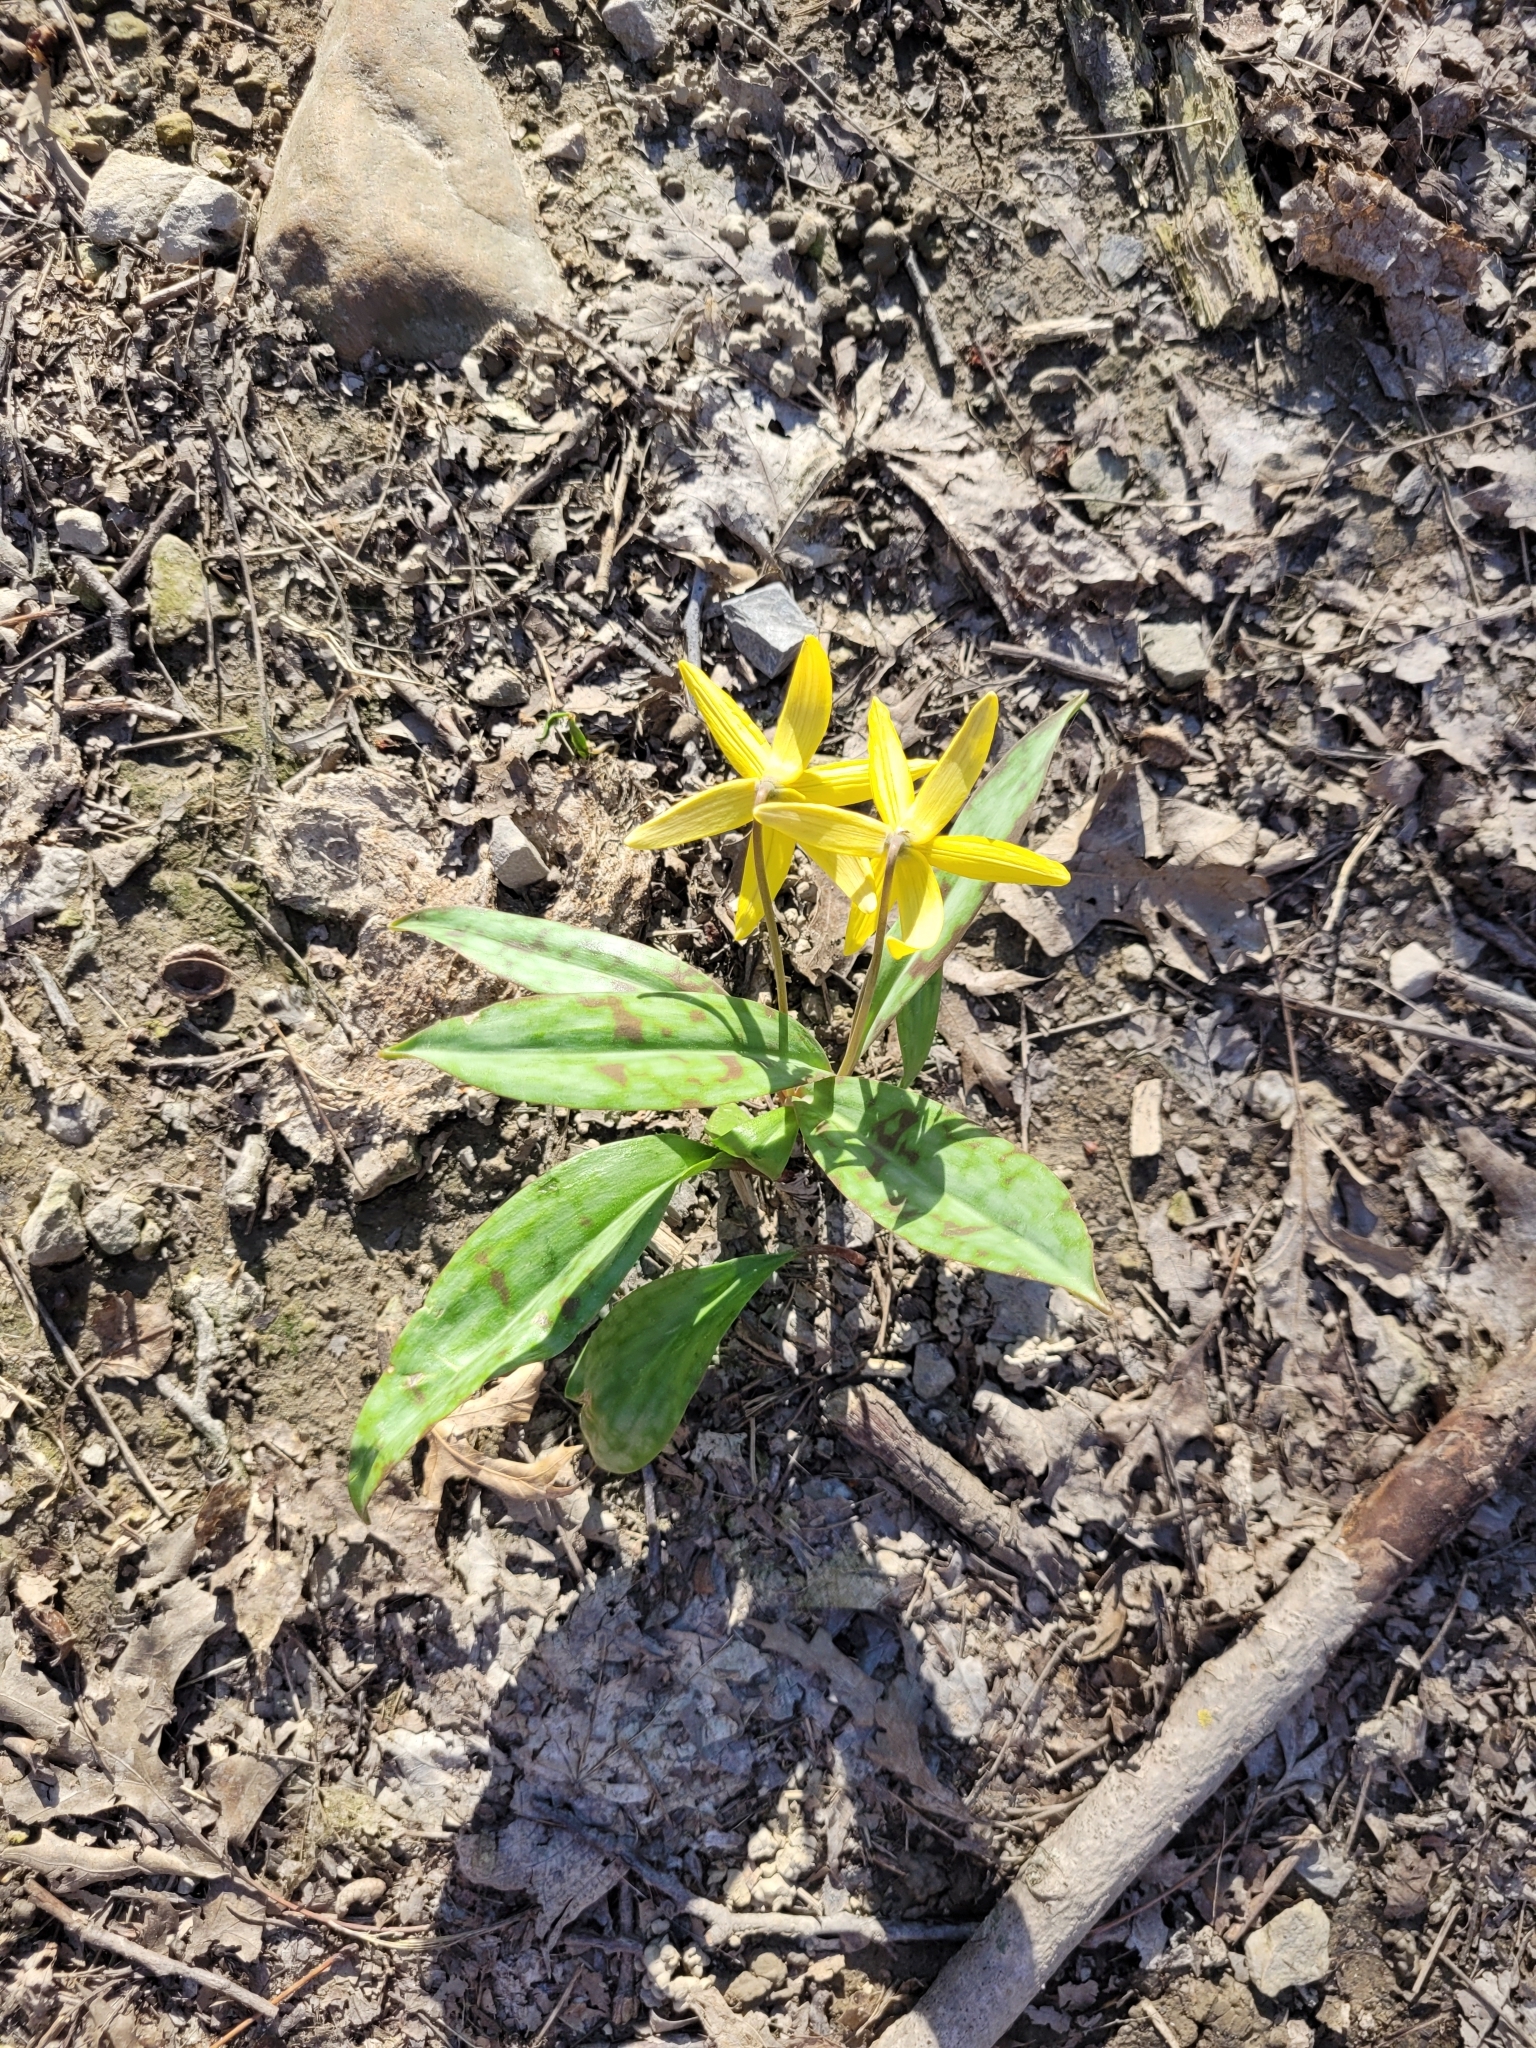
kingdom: Plantae
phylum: Tracheophyta
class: Liliopsida
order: Liliales
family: Liliaceae
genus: Erythronium
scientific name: Erythronium americanum
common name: Yellow adder's-tongue
